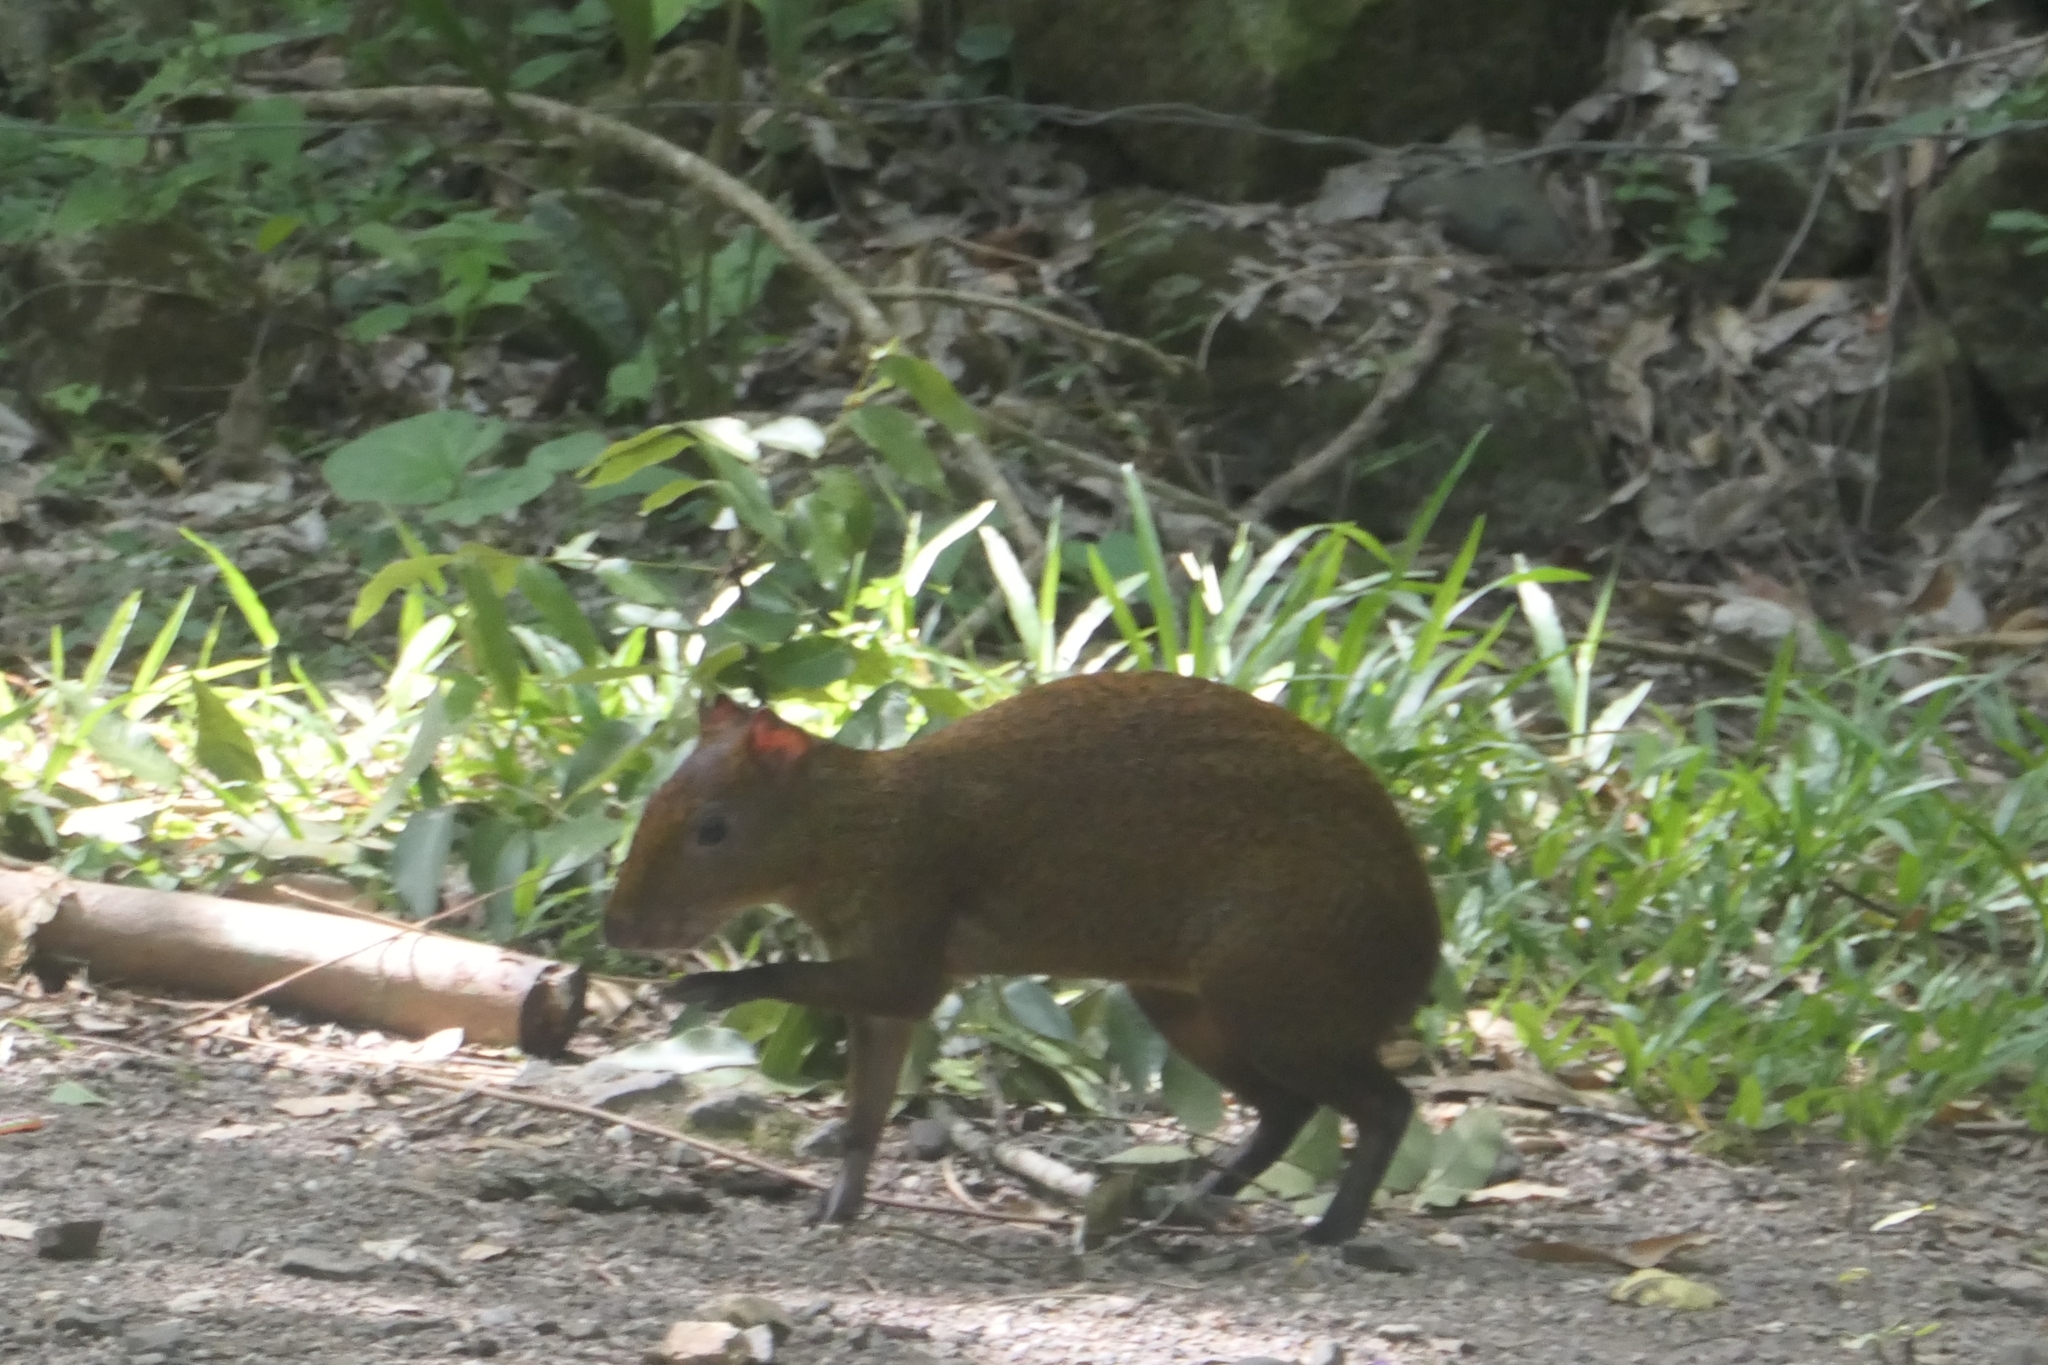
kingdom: Animalia
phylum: Chordata
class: Mammalia
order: Rodentia
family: Dasyproctidae
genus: Dasyprocta
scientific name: Dasyprocta punctata
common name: Central american agouti
